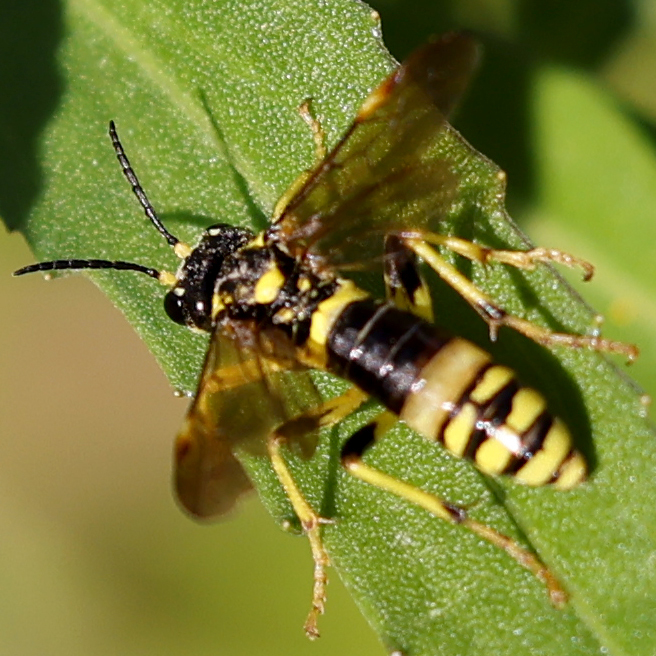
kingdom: Animalia
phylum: Arthropoda
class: Insecta
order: Hymenoptera
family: Tenthredinidae
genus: Tenthredo
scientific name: Tenthredo
